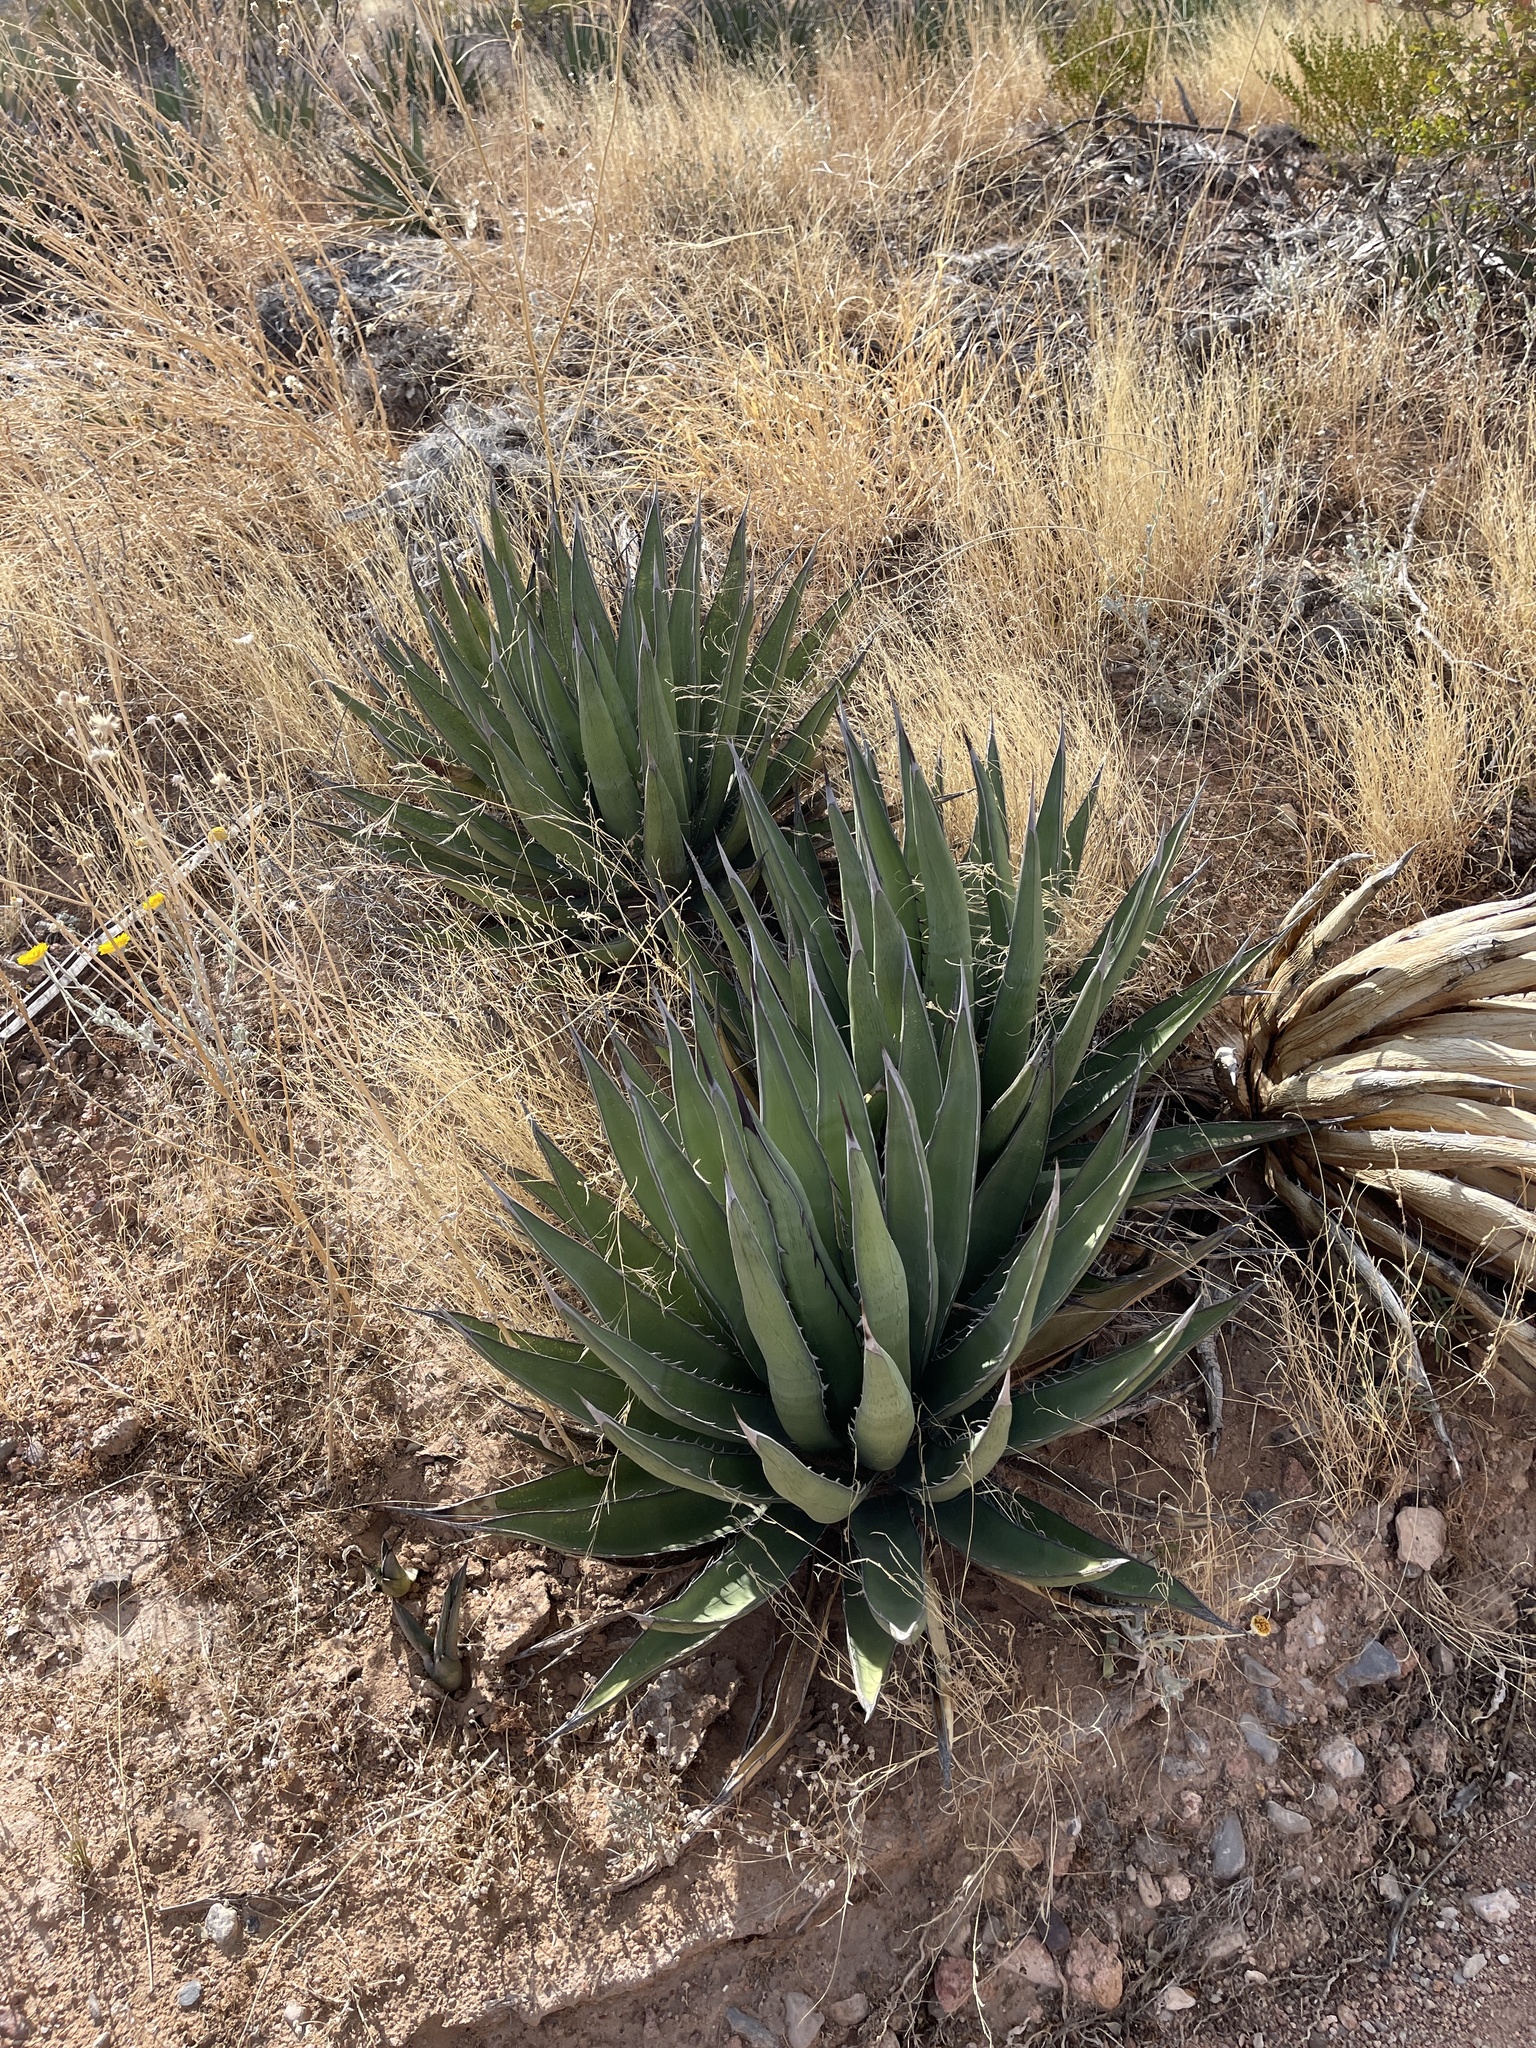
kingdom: Plantae
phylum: Tracheophyta
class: Liliopsida
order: Asparagales
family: Asparagaceae
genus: Agave
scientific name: Agave lechuguilla
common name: Lecheguilla agave
